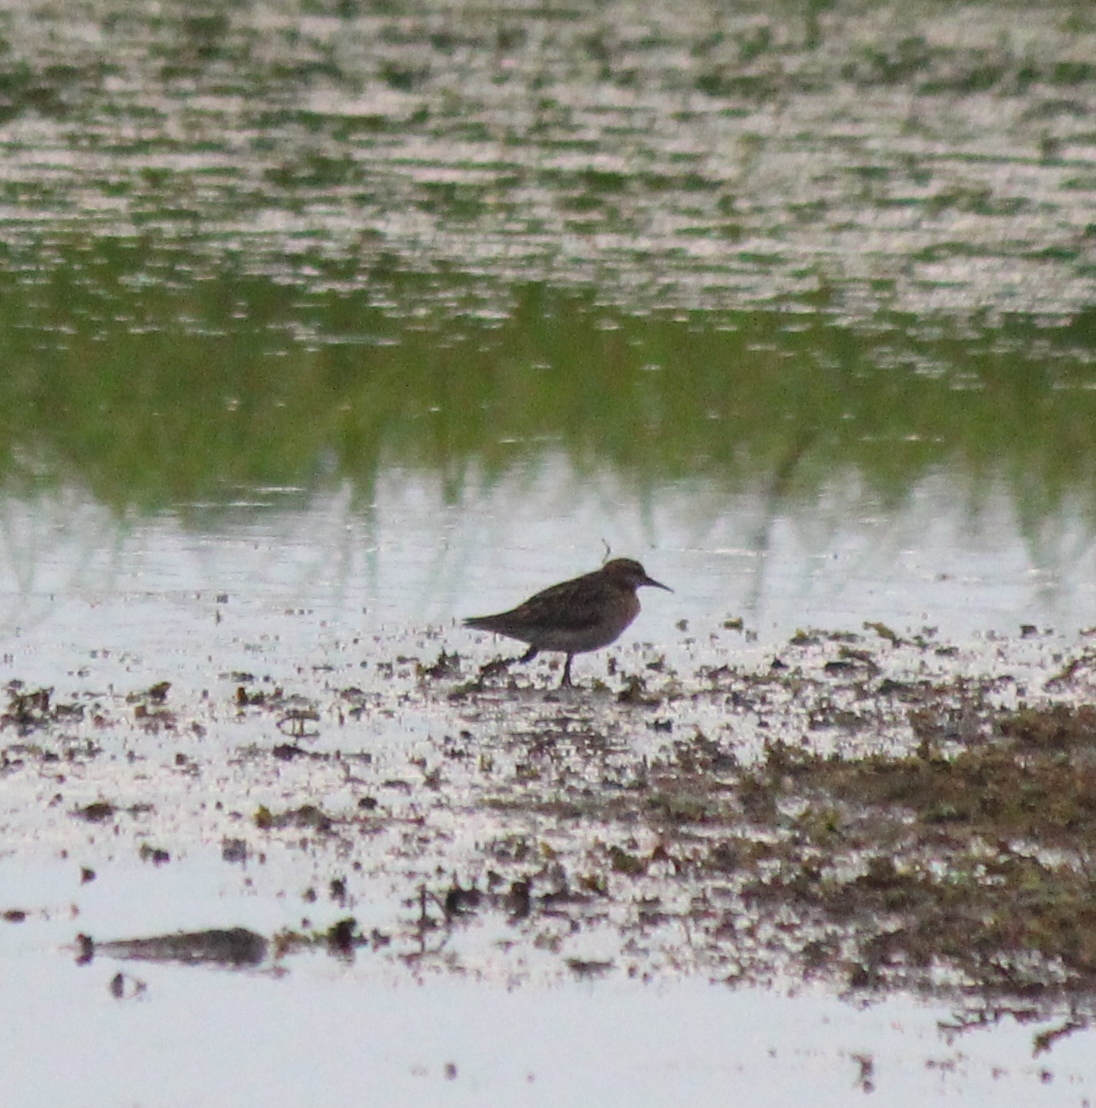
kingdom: Animalia
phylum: Chordata
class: Aves
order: Charadriiformes
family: Scolopacidae
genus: Calidris
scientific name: Calidris acuminata
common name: Sharp-tailed sandpiper
